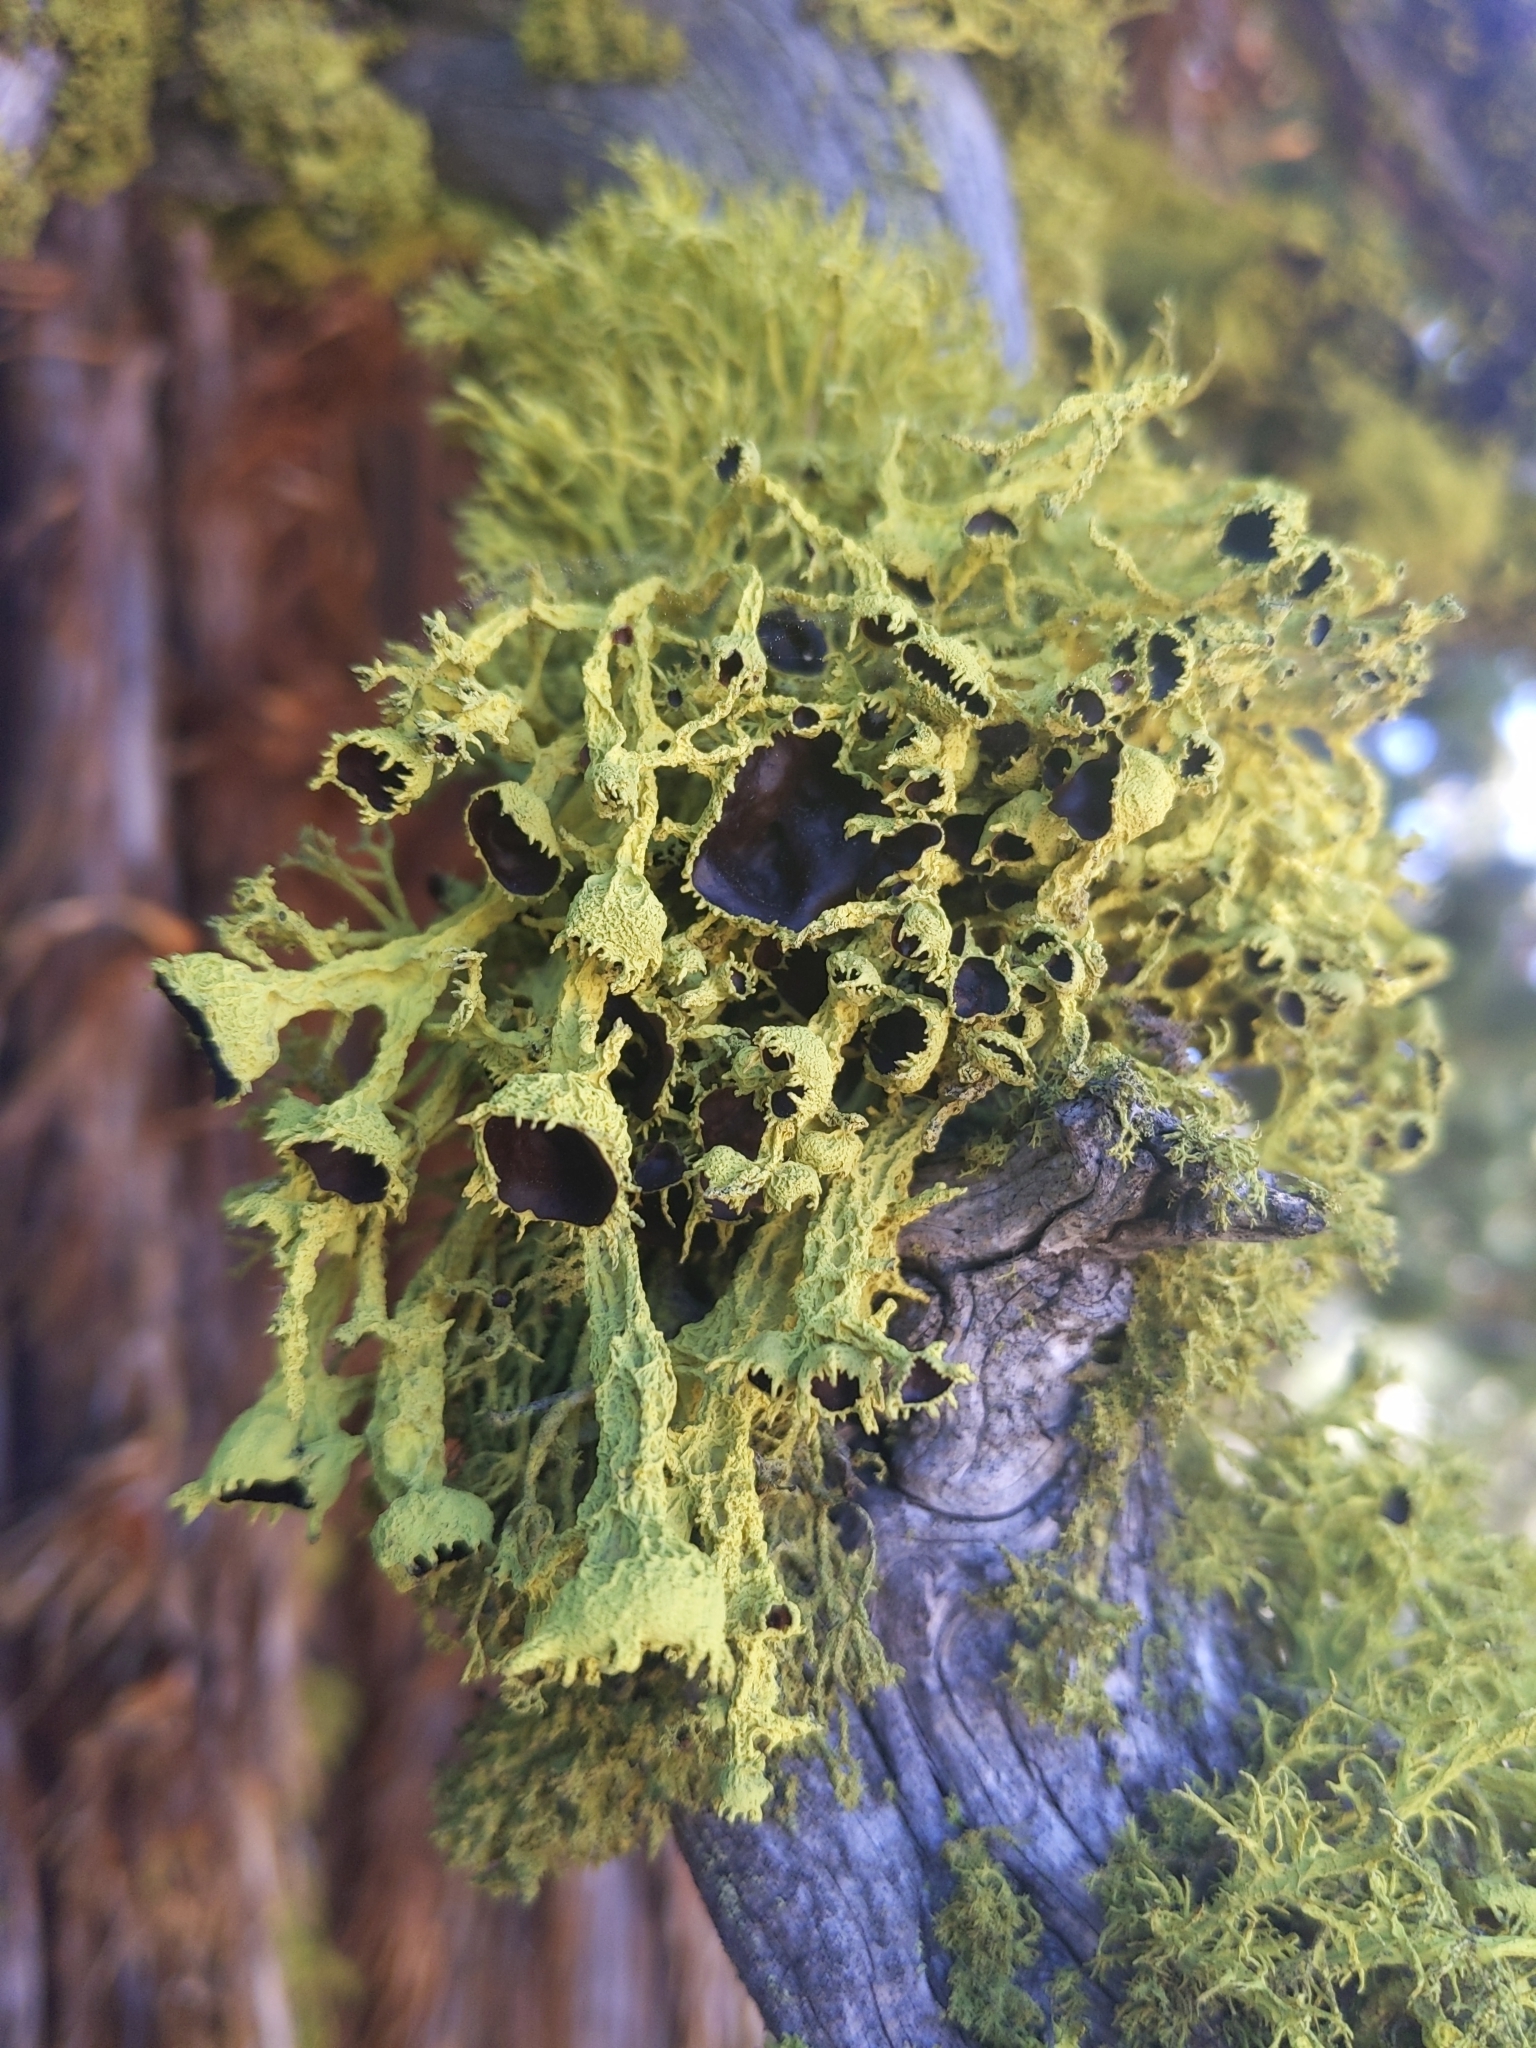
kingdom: Fungi
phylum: Ascomycota
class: Lecanoromycetes
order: Lecanorales
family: Parmeliaceae
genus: Letharia
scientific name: Letharia columbiana
